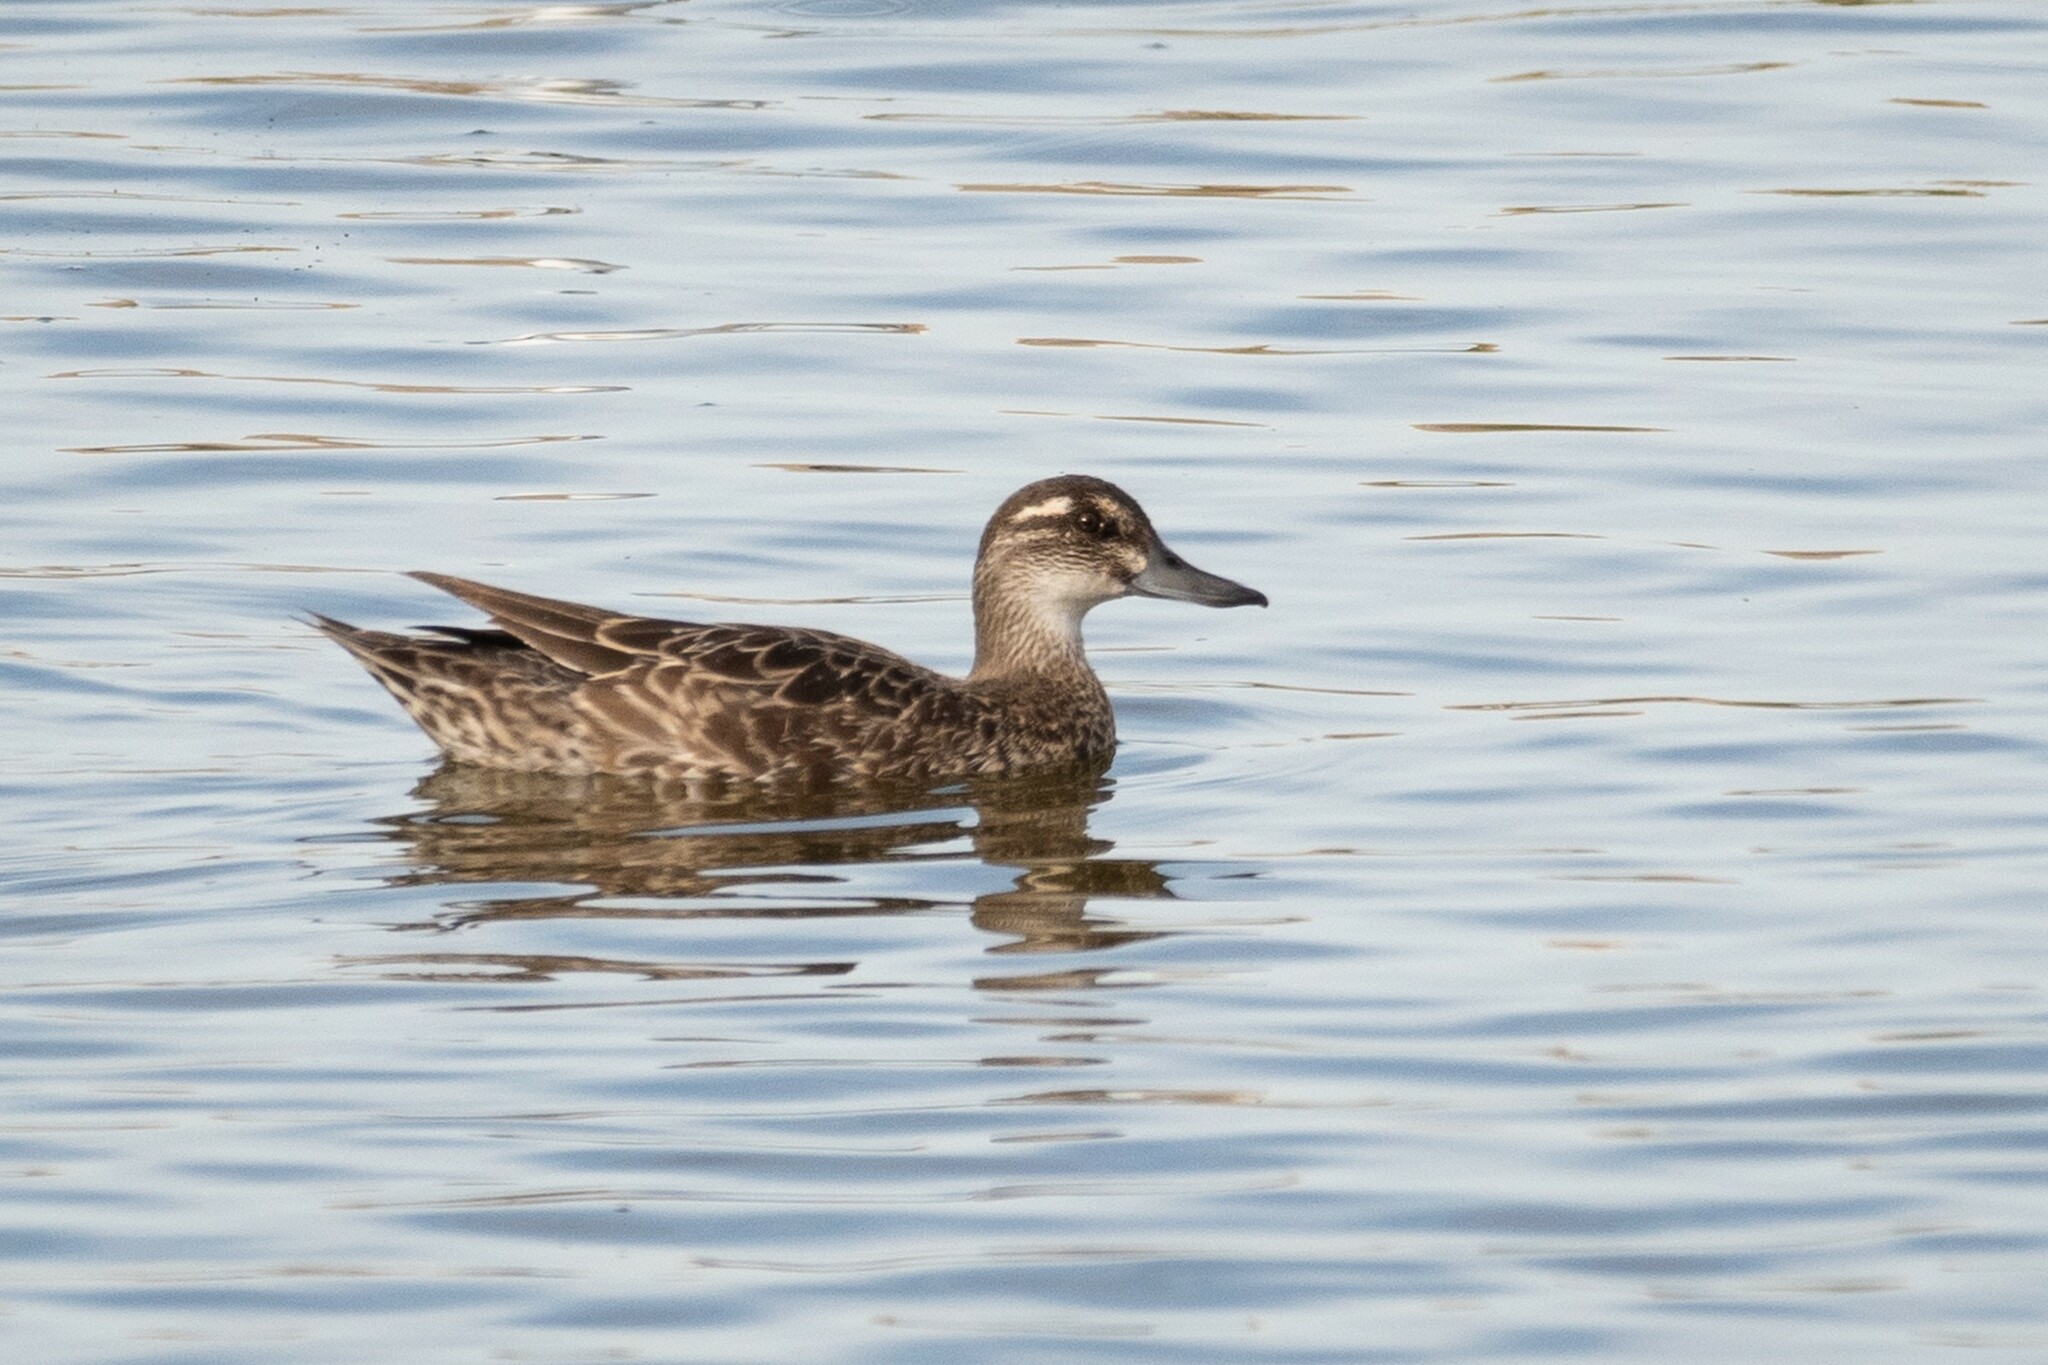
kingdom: Animalia
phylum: Chordata
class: Aves
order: Anseriformes
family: Anatidae
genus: Spatula
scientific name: Spatula querquedula
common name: Garganey
